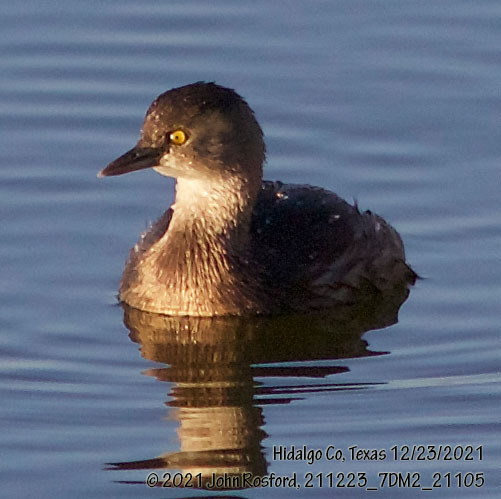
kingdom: Animalia
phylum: Chordata
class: Aves
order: Podicipediformes
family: Podicipedidae
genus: Tachybaptus
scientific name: Tachybaptus dominicus
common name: Least grebe
